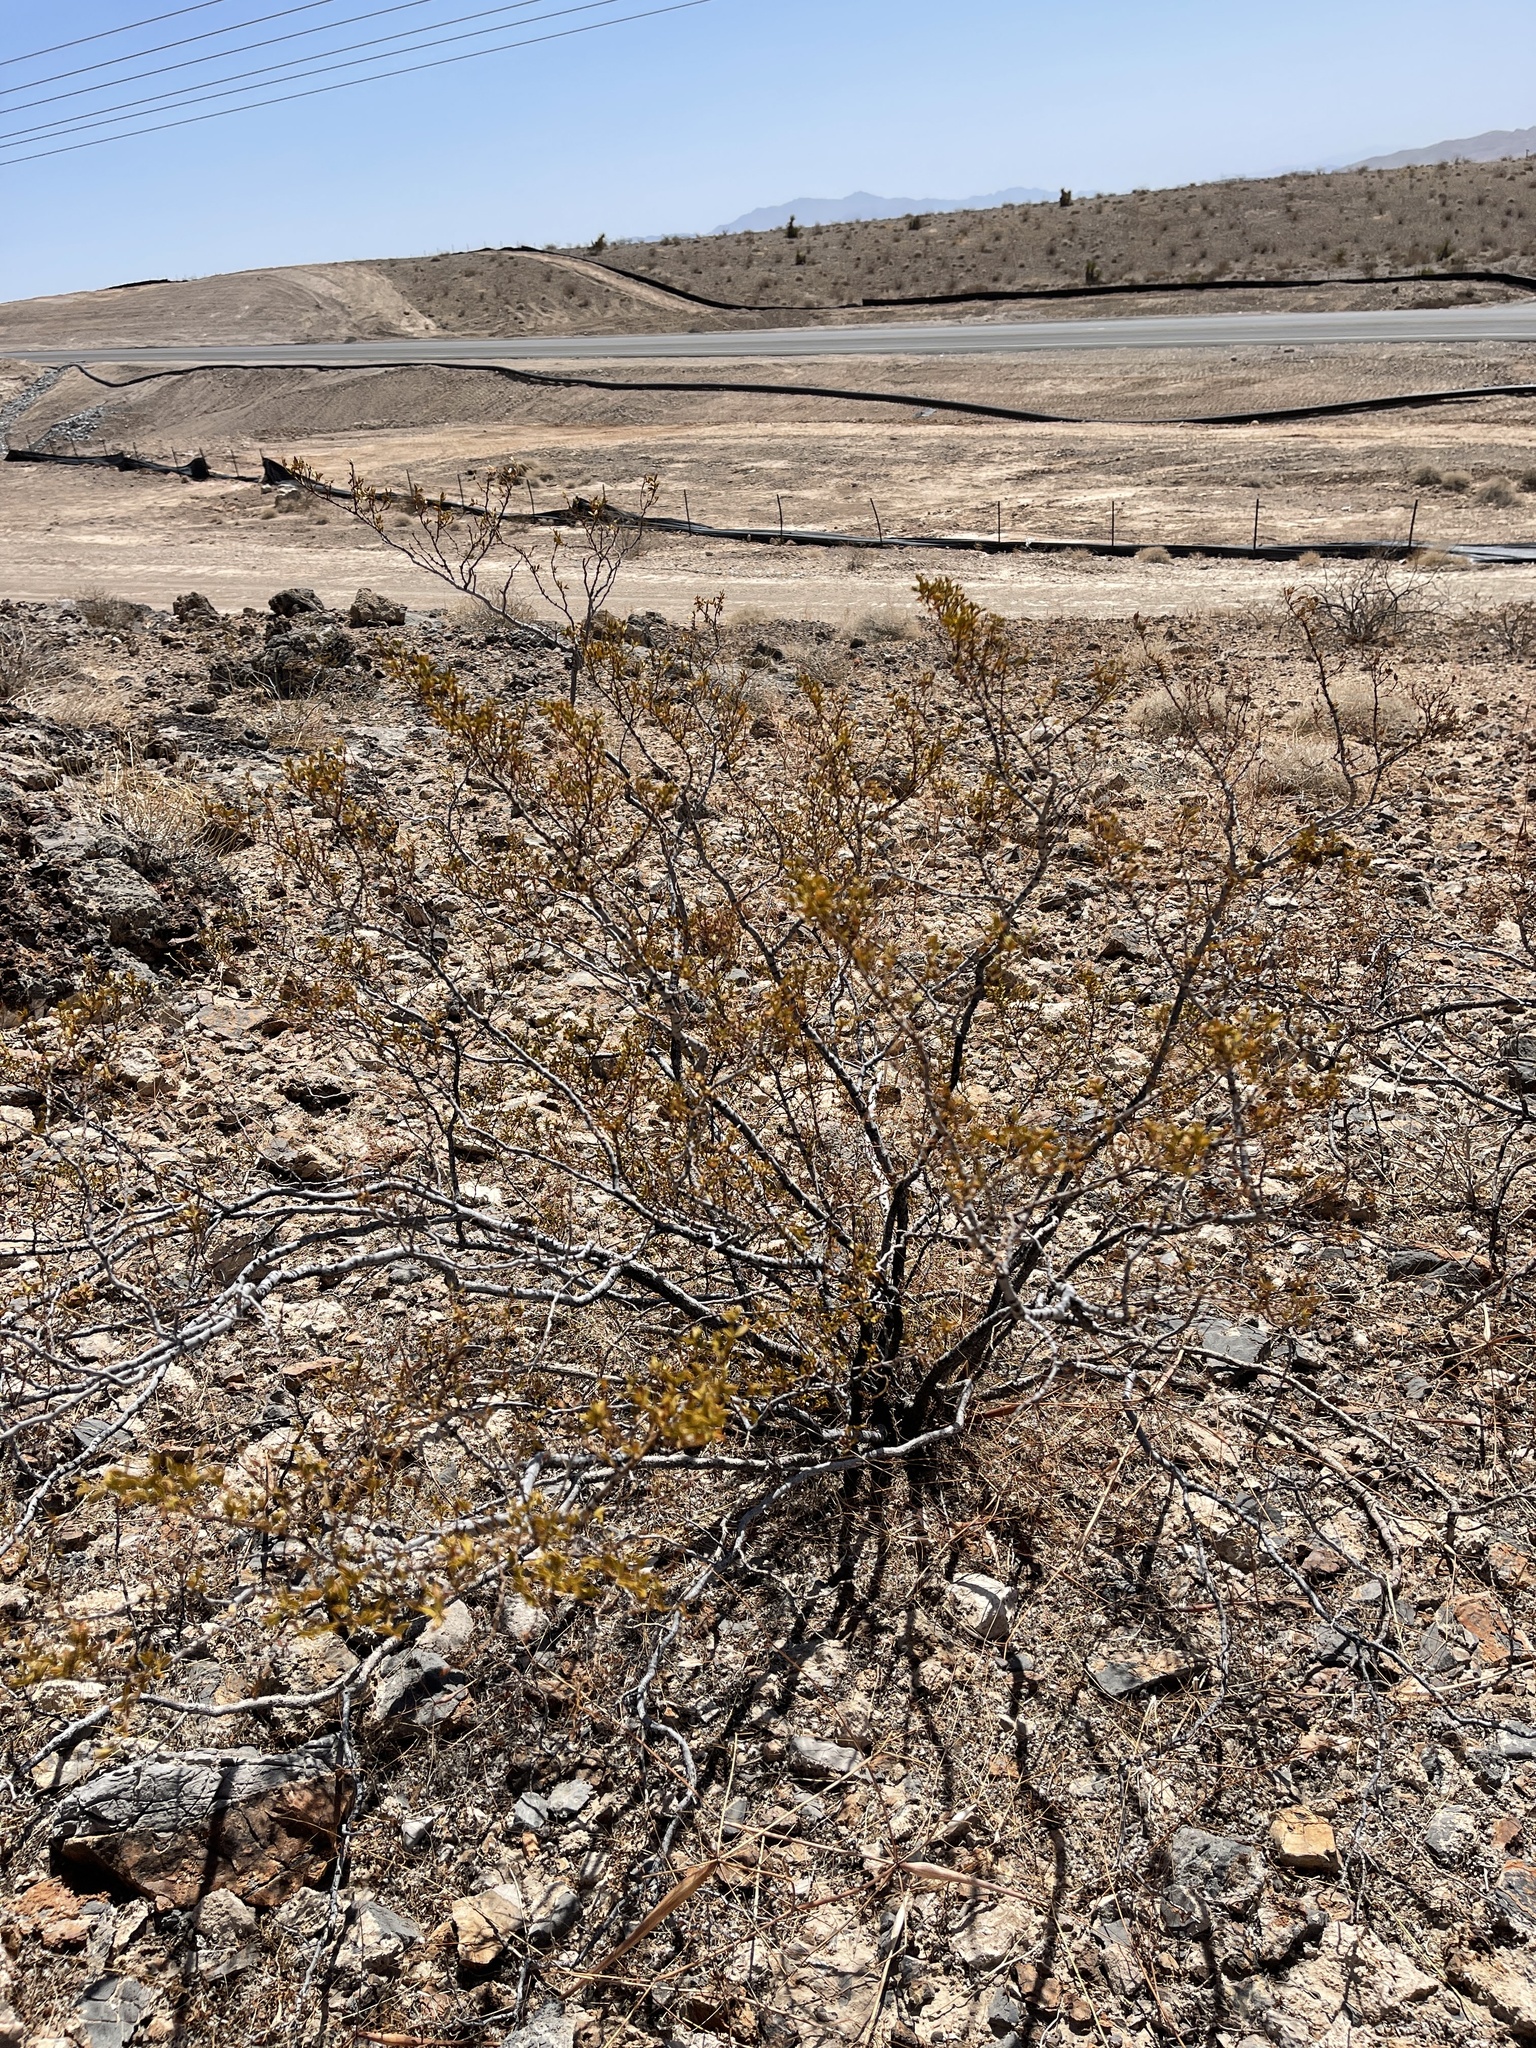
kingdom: Plantae
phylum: Tracheophyta
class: Magnoliopsida
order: Zygophyllales
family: Zygophyllaceae
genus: Larrea
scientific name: Larrea tridentata
